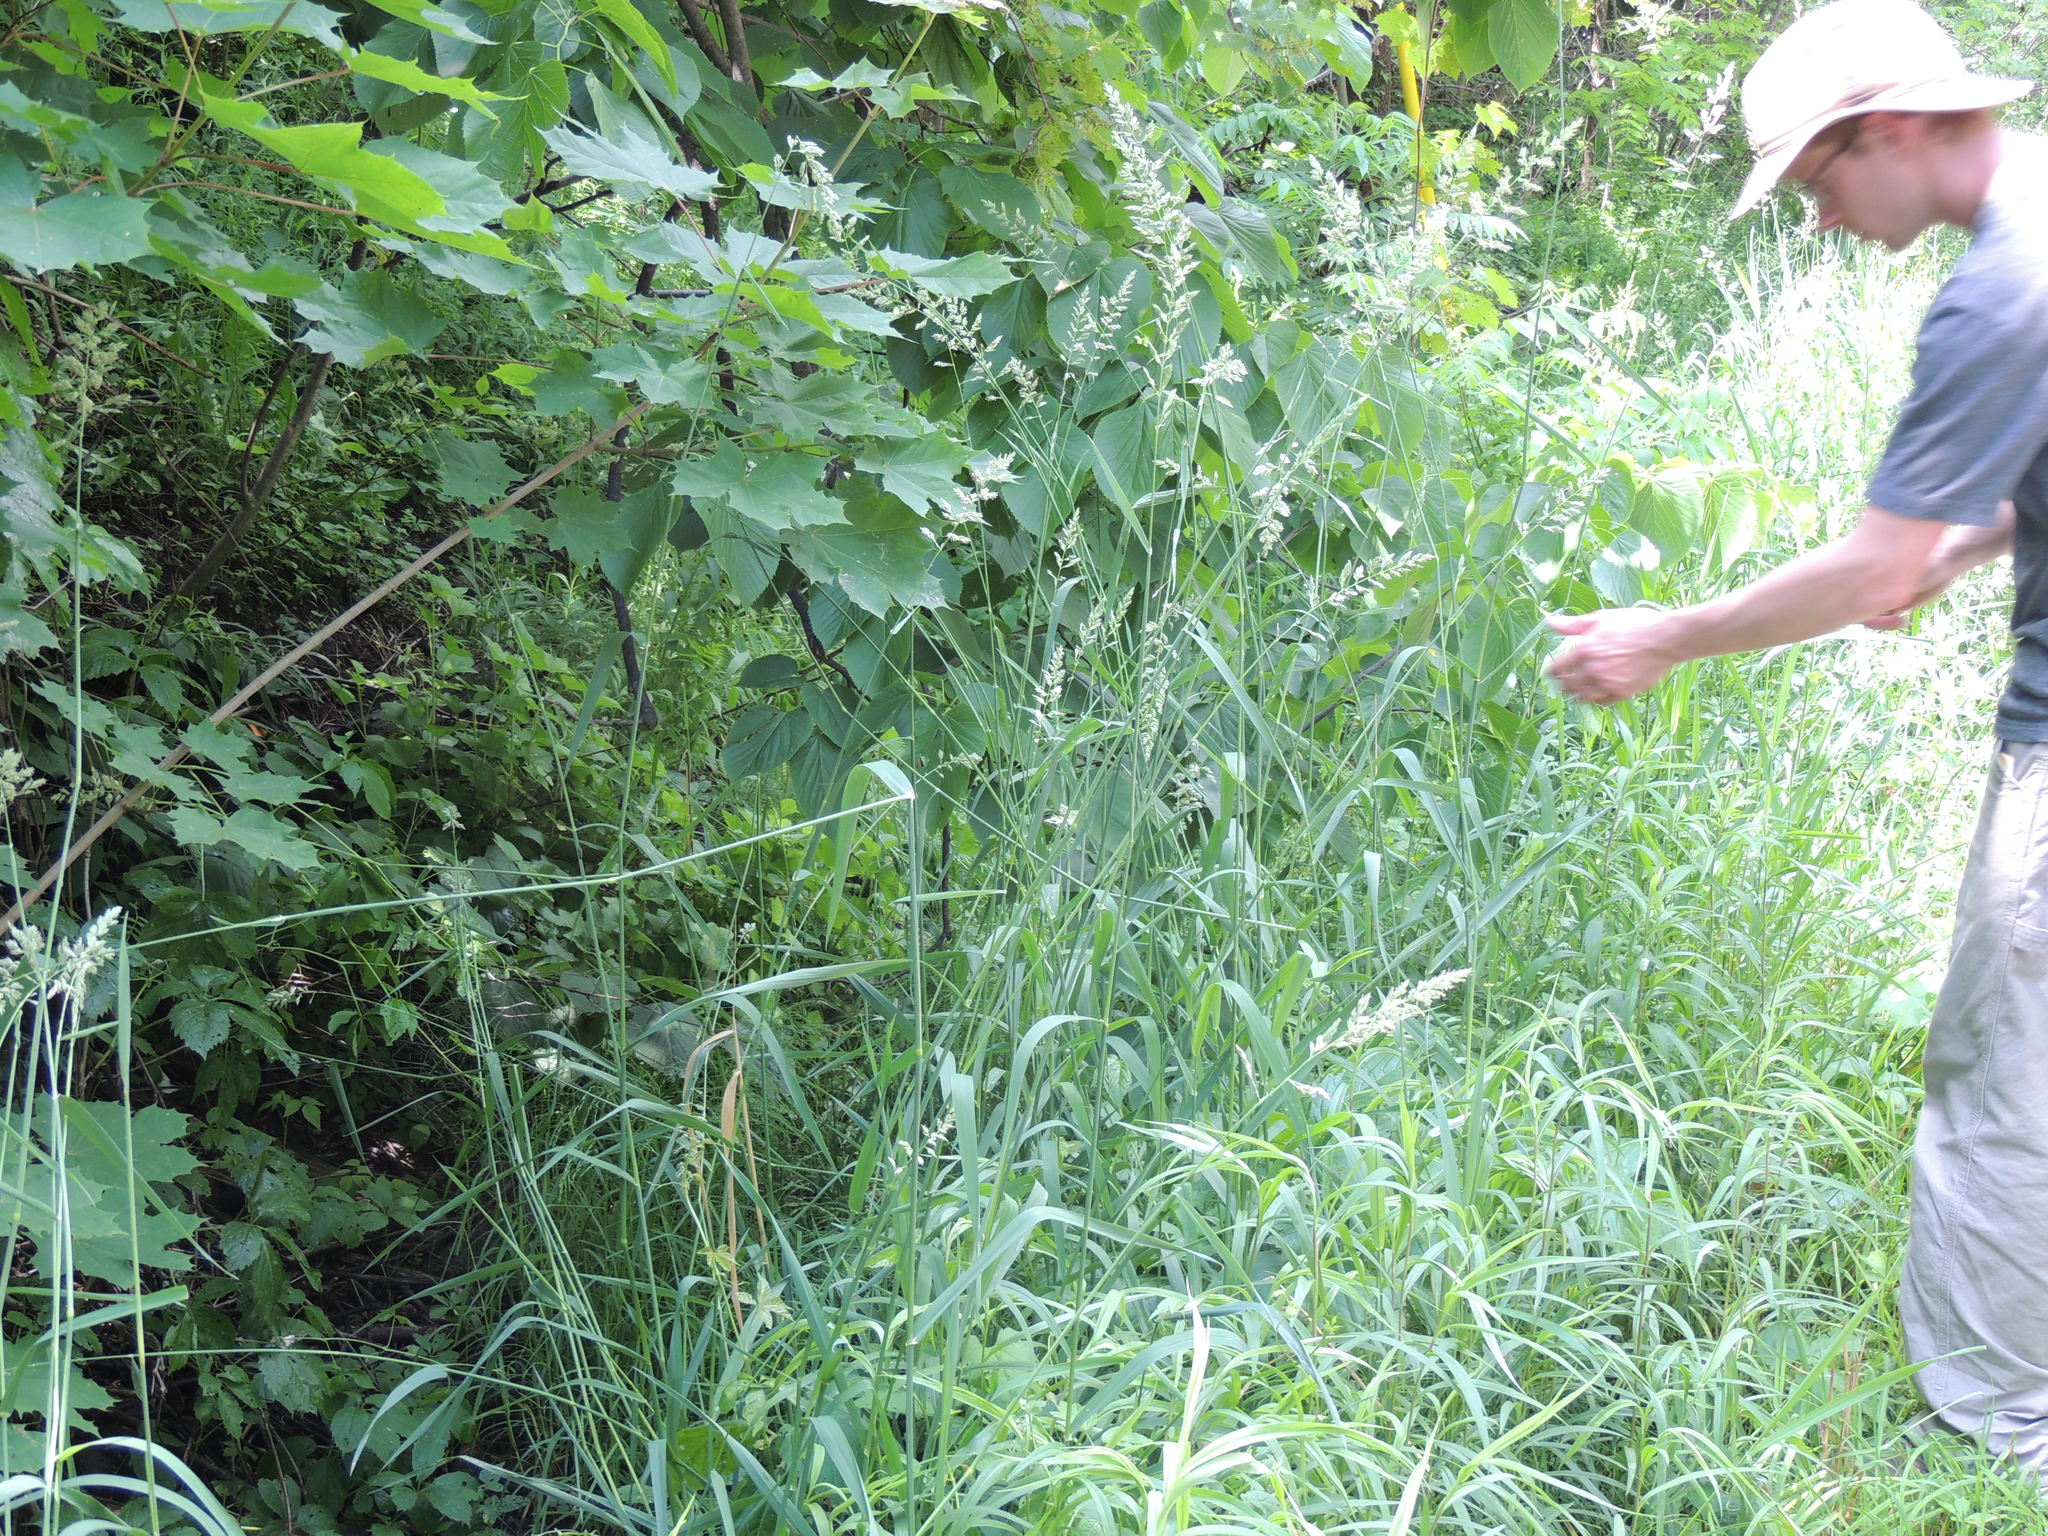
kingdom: Plantae
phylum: Tracheophyta
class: Liliopsida
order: Poales
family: Poaceae
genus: Phalaris
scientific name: Phalaris arundinacea
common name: Reed canary-grass
